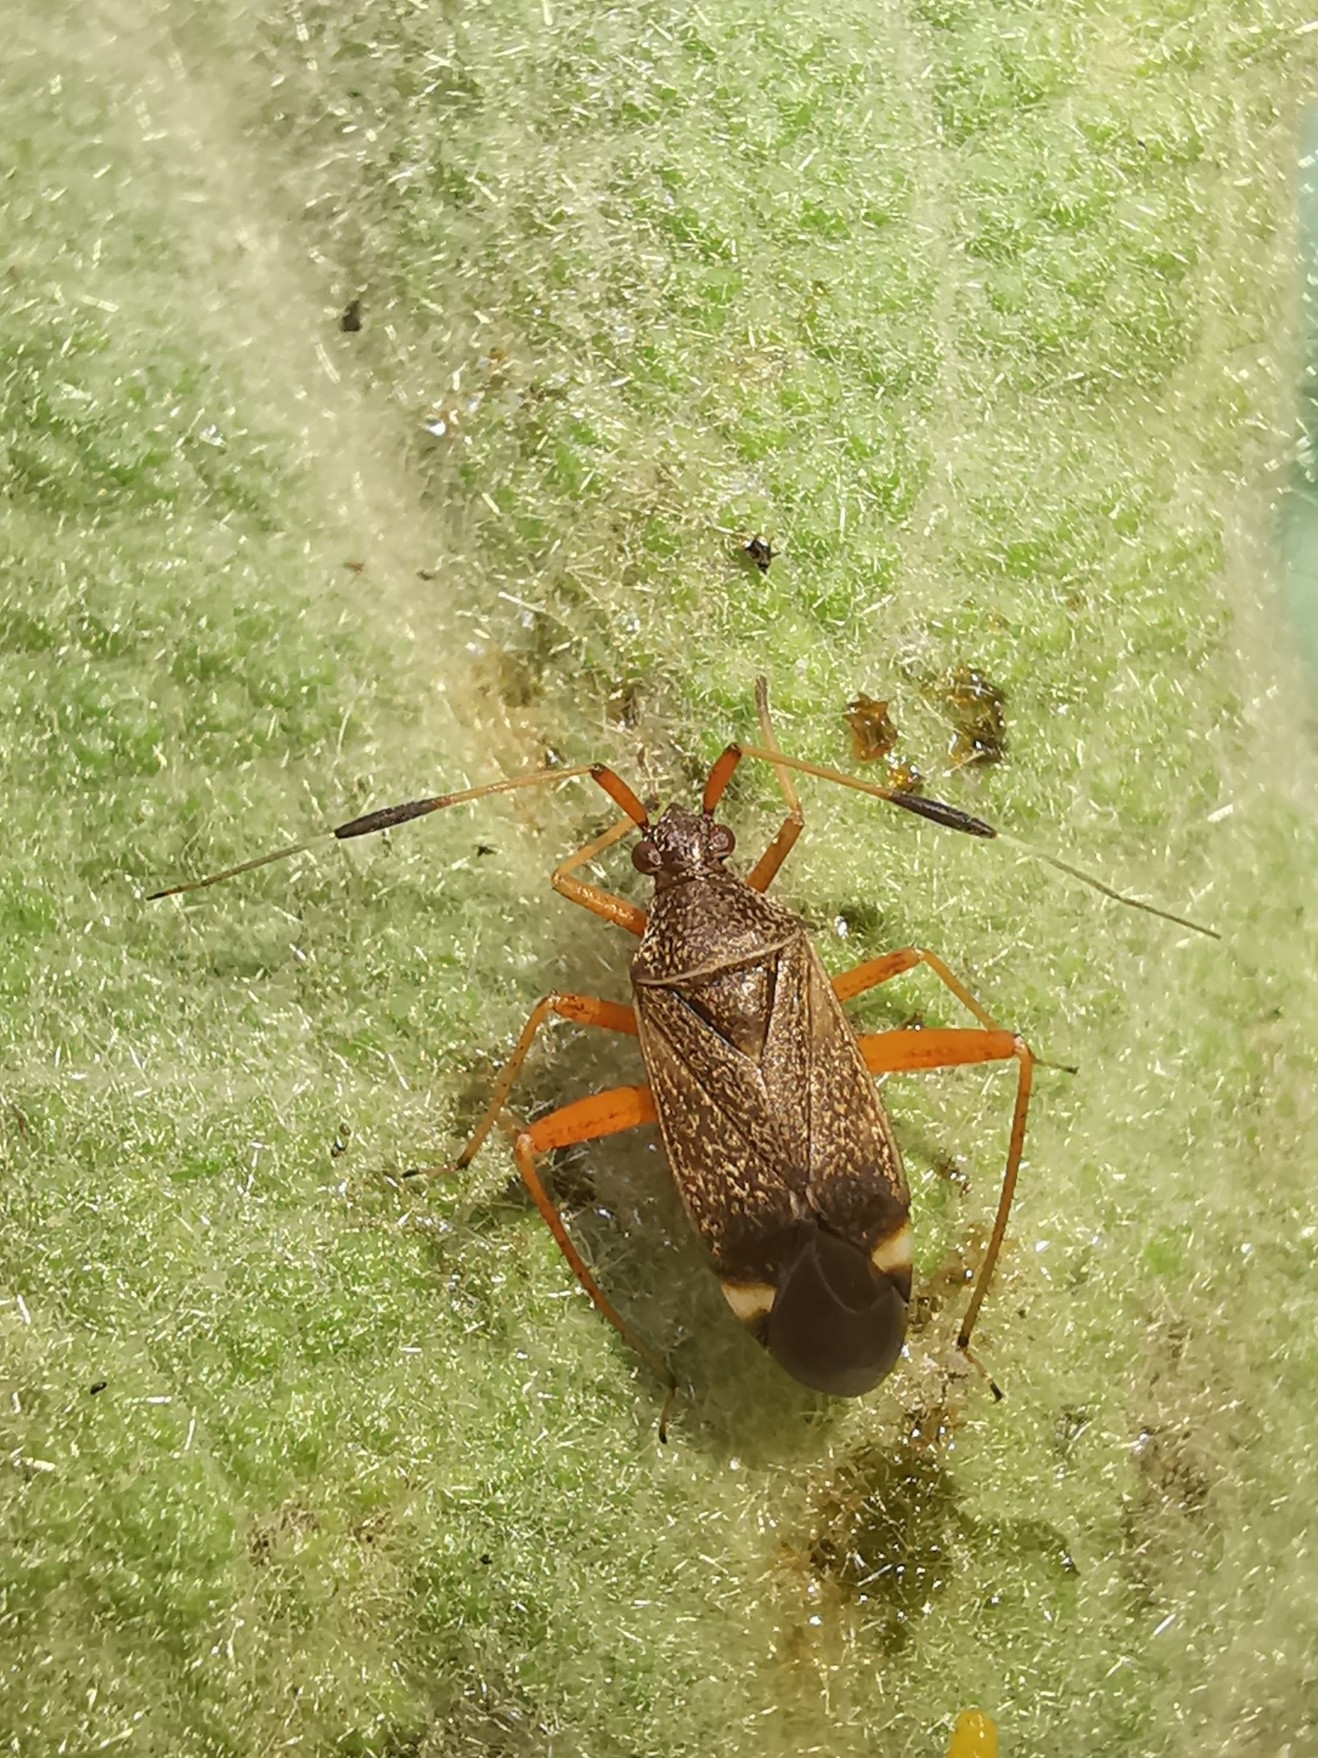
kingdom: Animalia
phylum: Arthropoda
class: Insecta
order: Hemiptera
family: Miridae
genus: Closterotomus
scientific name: Closterotomus biclavatus
